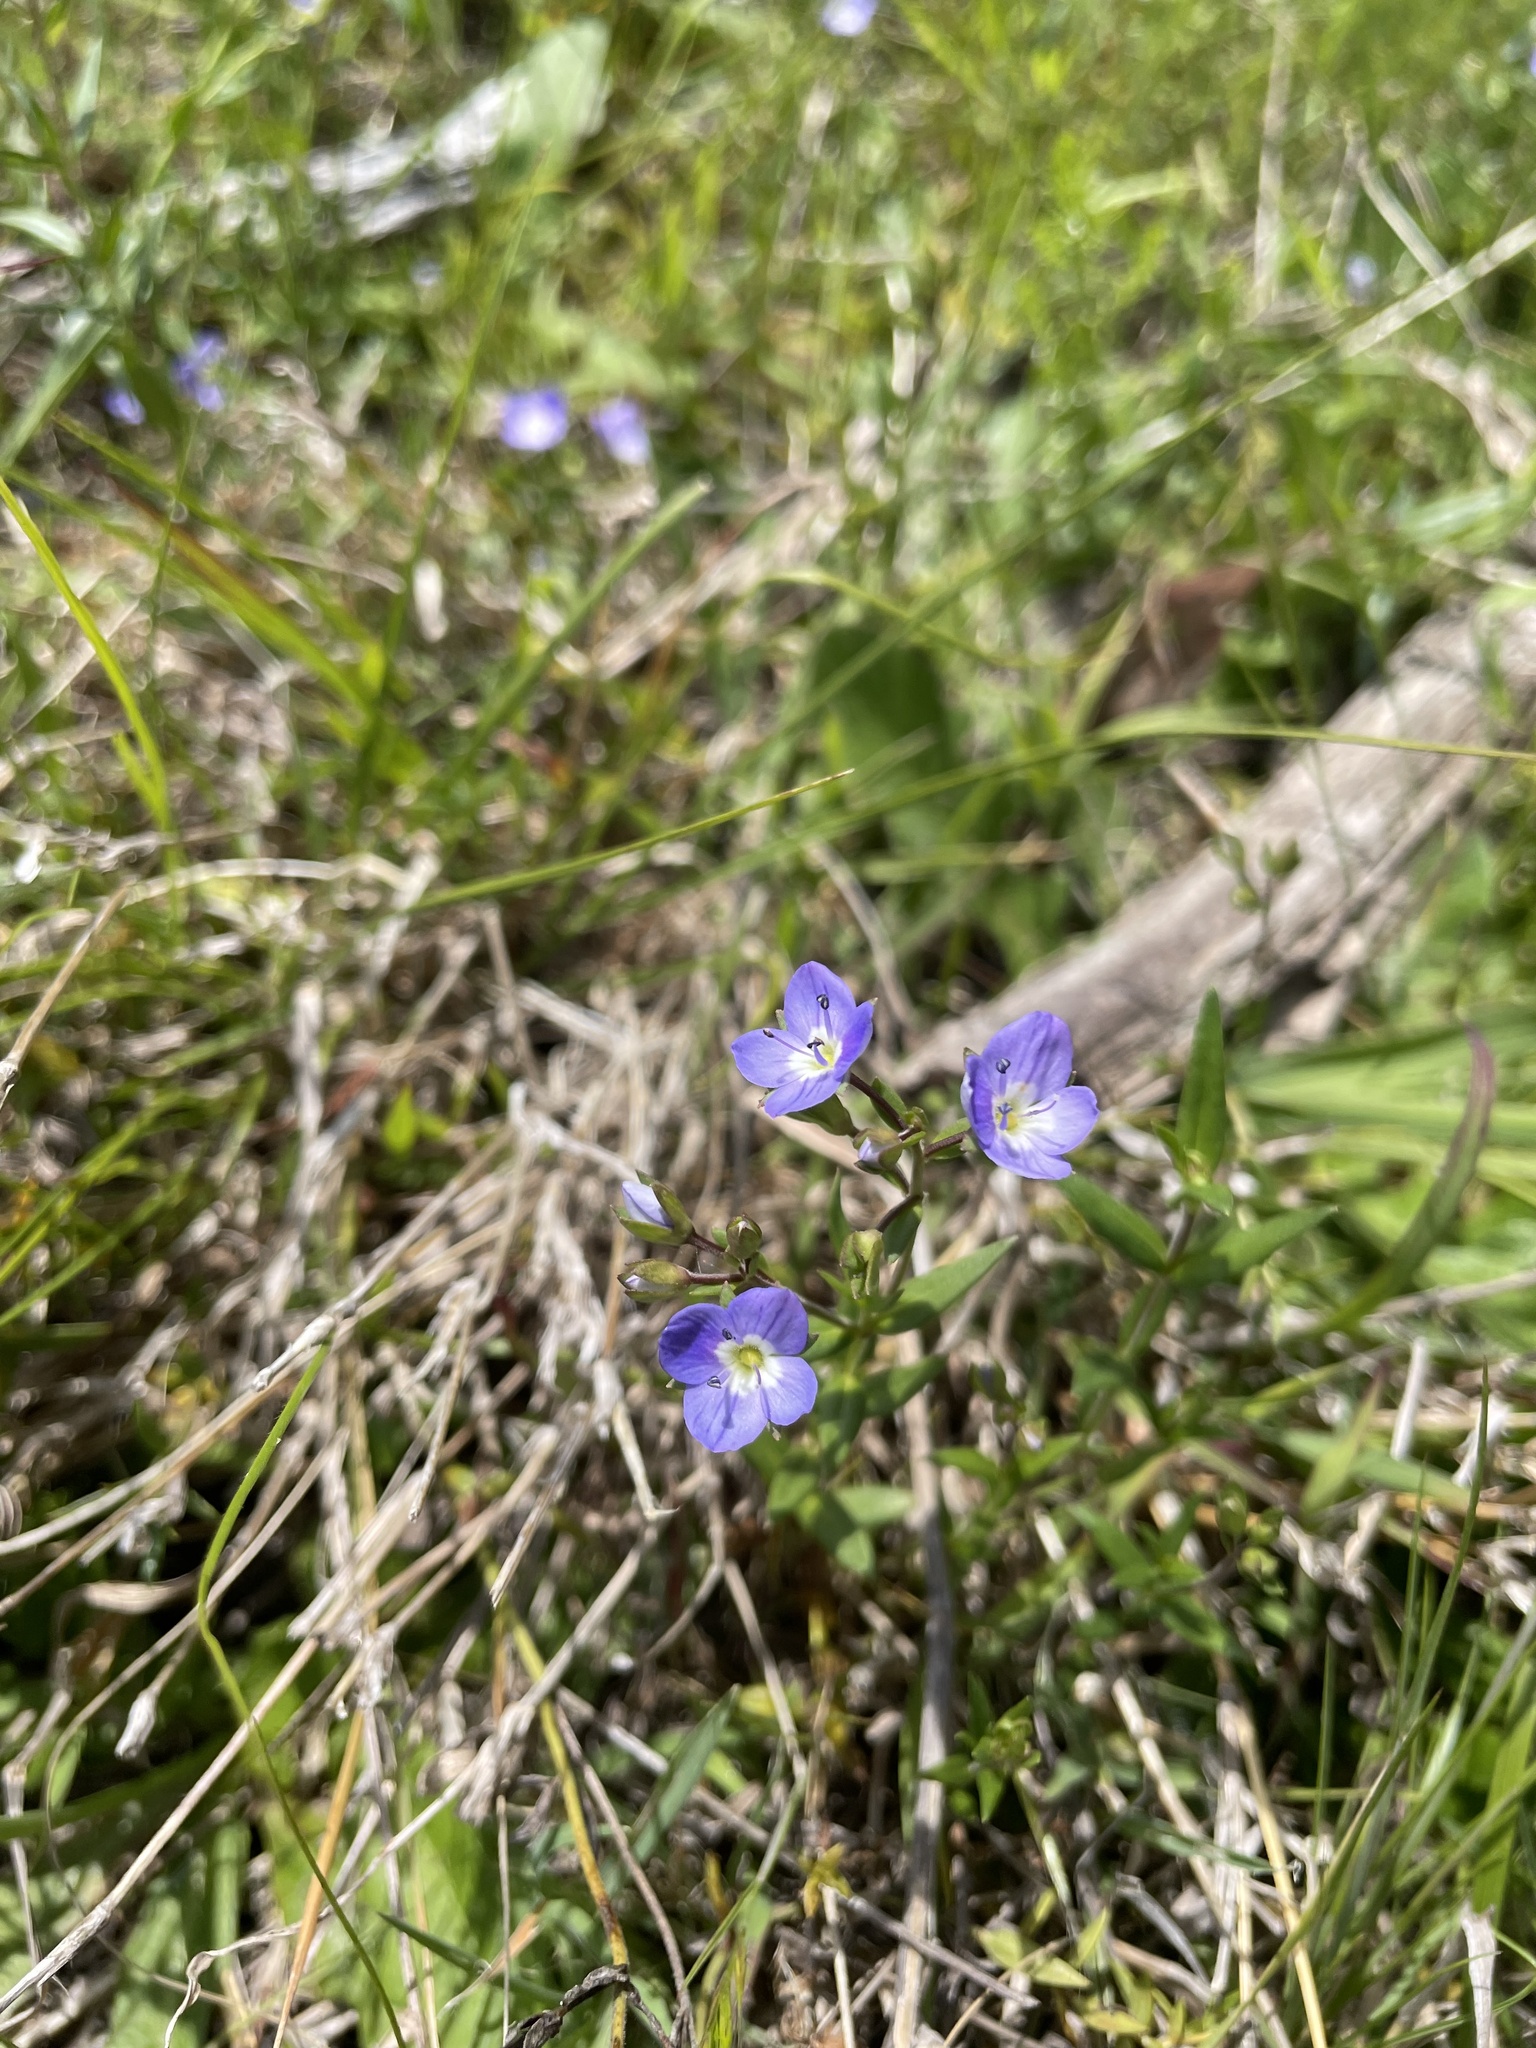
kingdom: Plantae
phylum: Tracheophyta
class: Magnoliopsida
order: Lamiales
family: Plantaginaceae
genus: Veronica
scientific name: Veronica gracilis
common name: Slender speedwell
